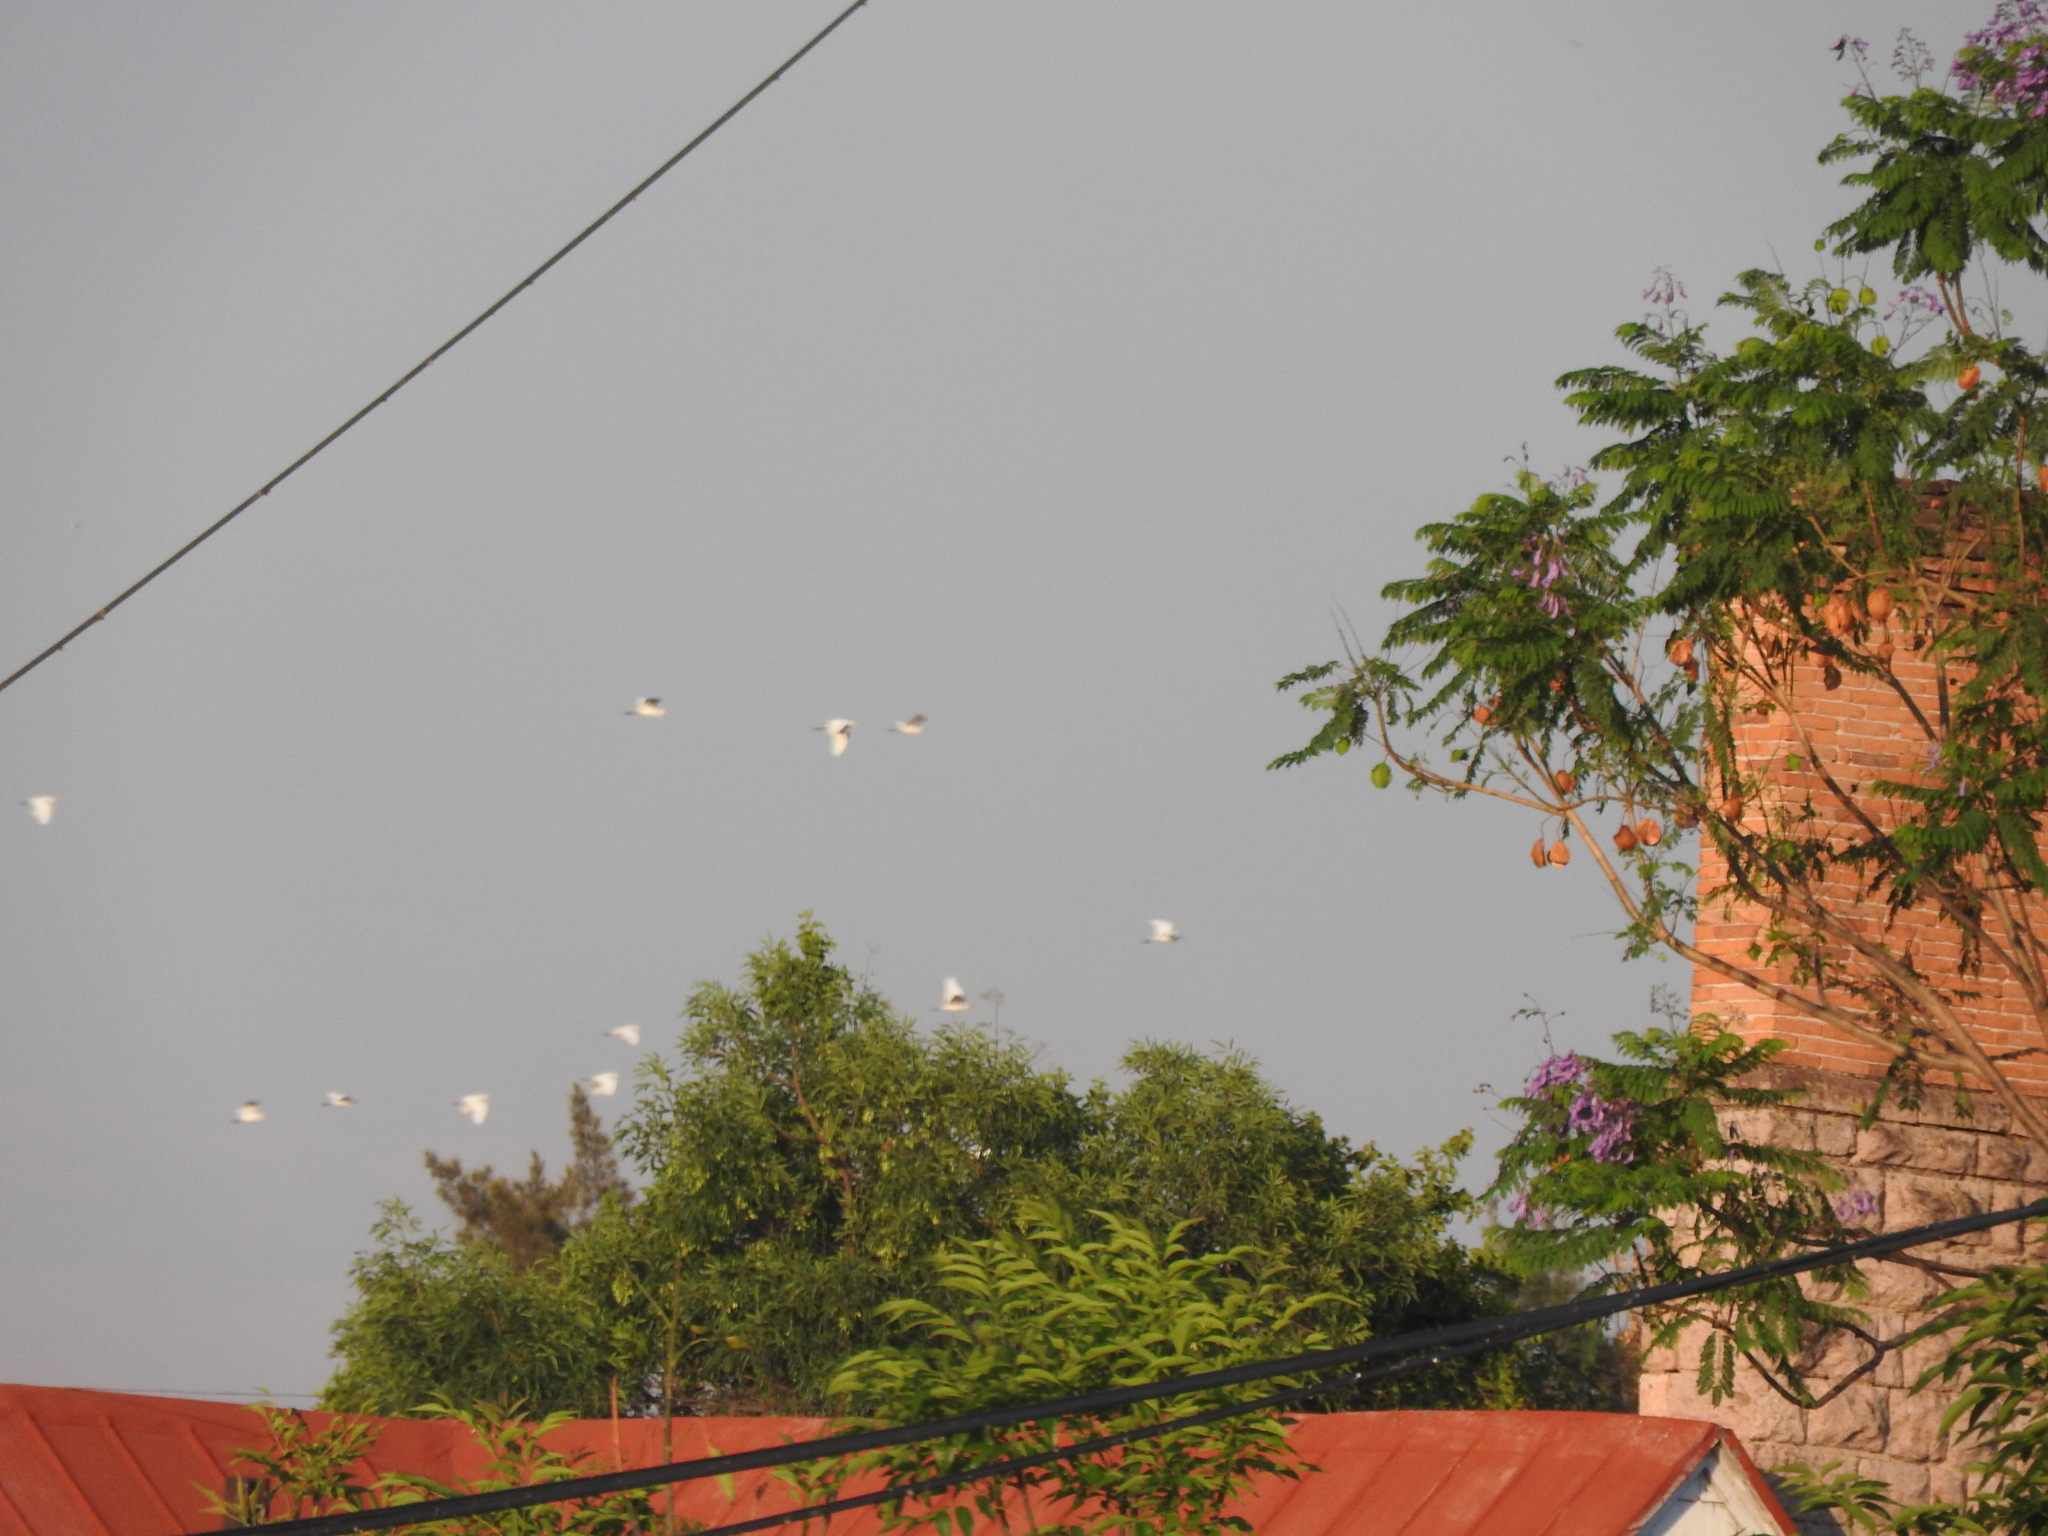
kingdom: Animalia
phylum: Chordata
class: Aves
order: Pelecaniformes
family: Ardeidae
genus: Bubulcus
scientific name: Bubulcus ibis
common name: Cattle egret
